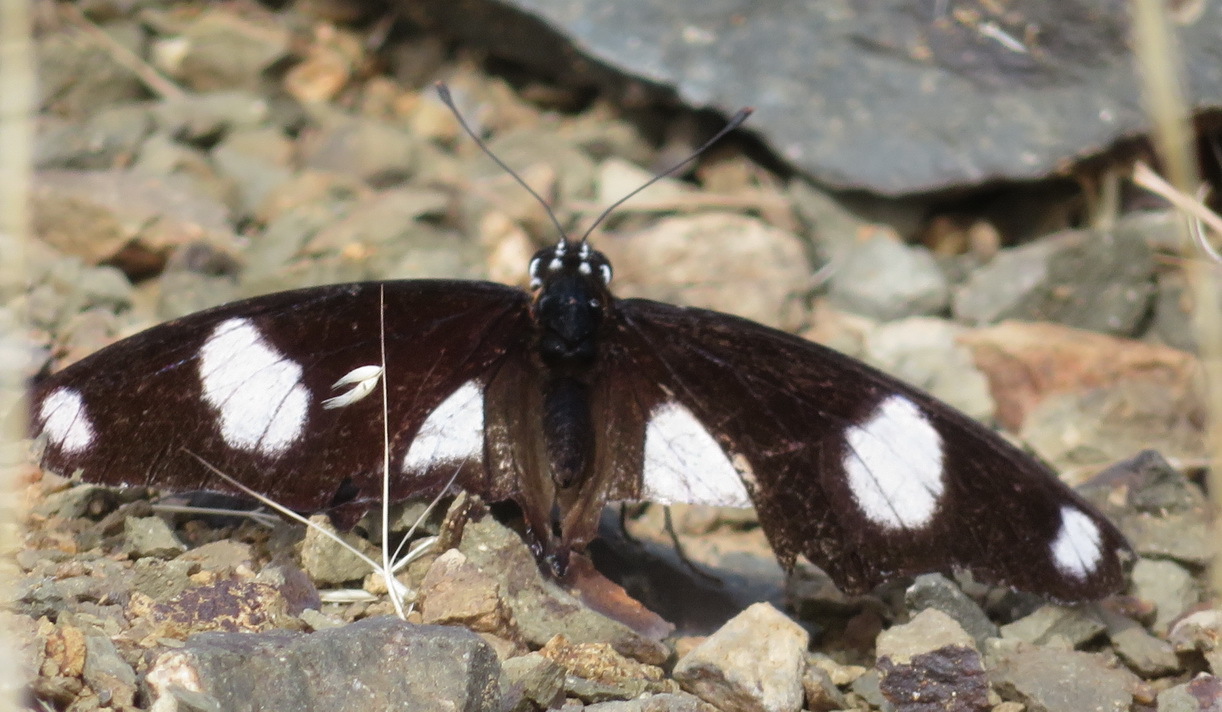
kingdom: Animalia
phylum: Arthropoda
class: Insecta
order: Lepidoptera
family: Nymphalidae
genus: Hypolimnas
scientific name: Hypolimnas misippus
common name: False plain tiger
